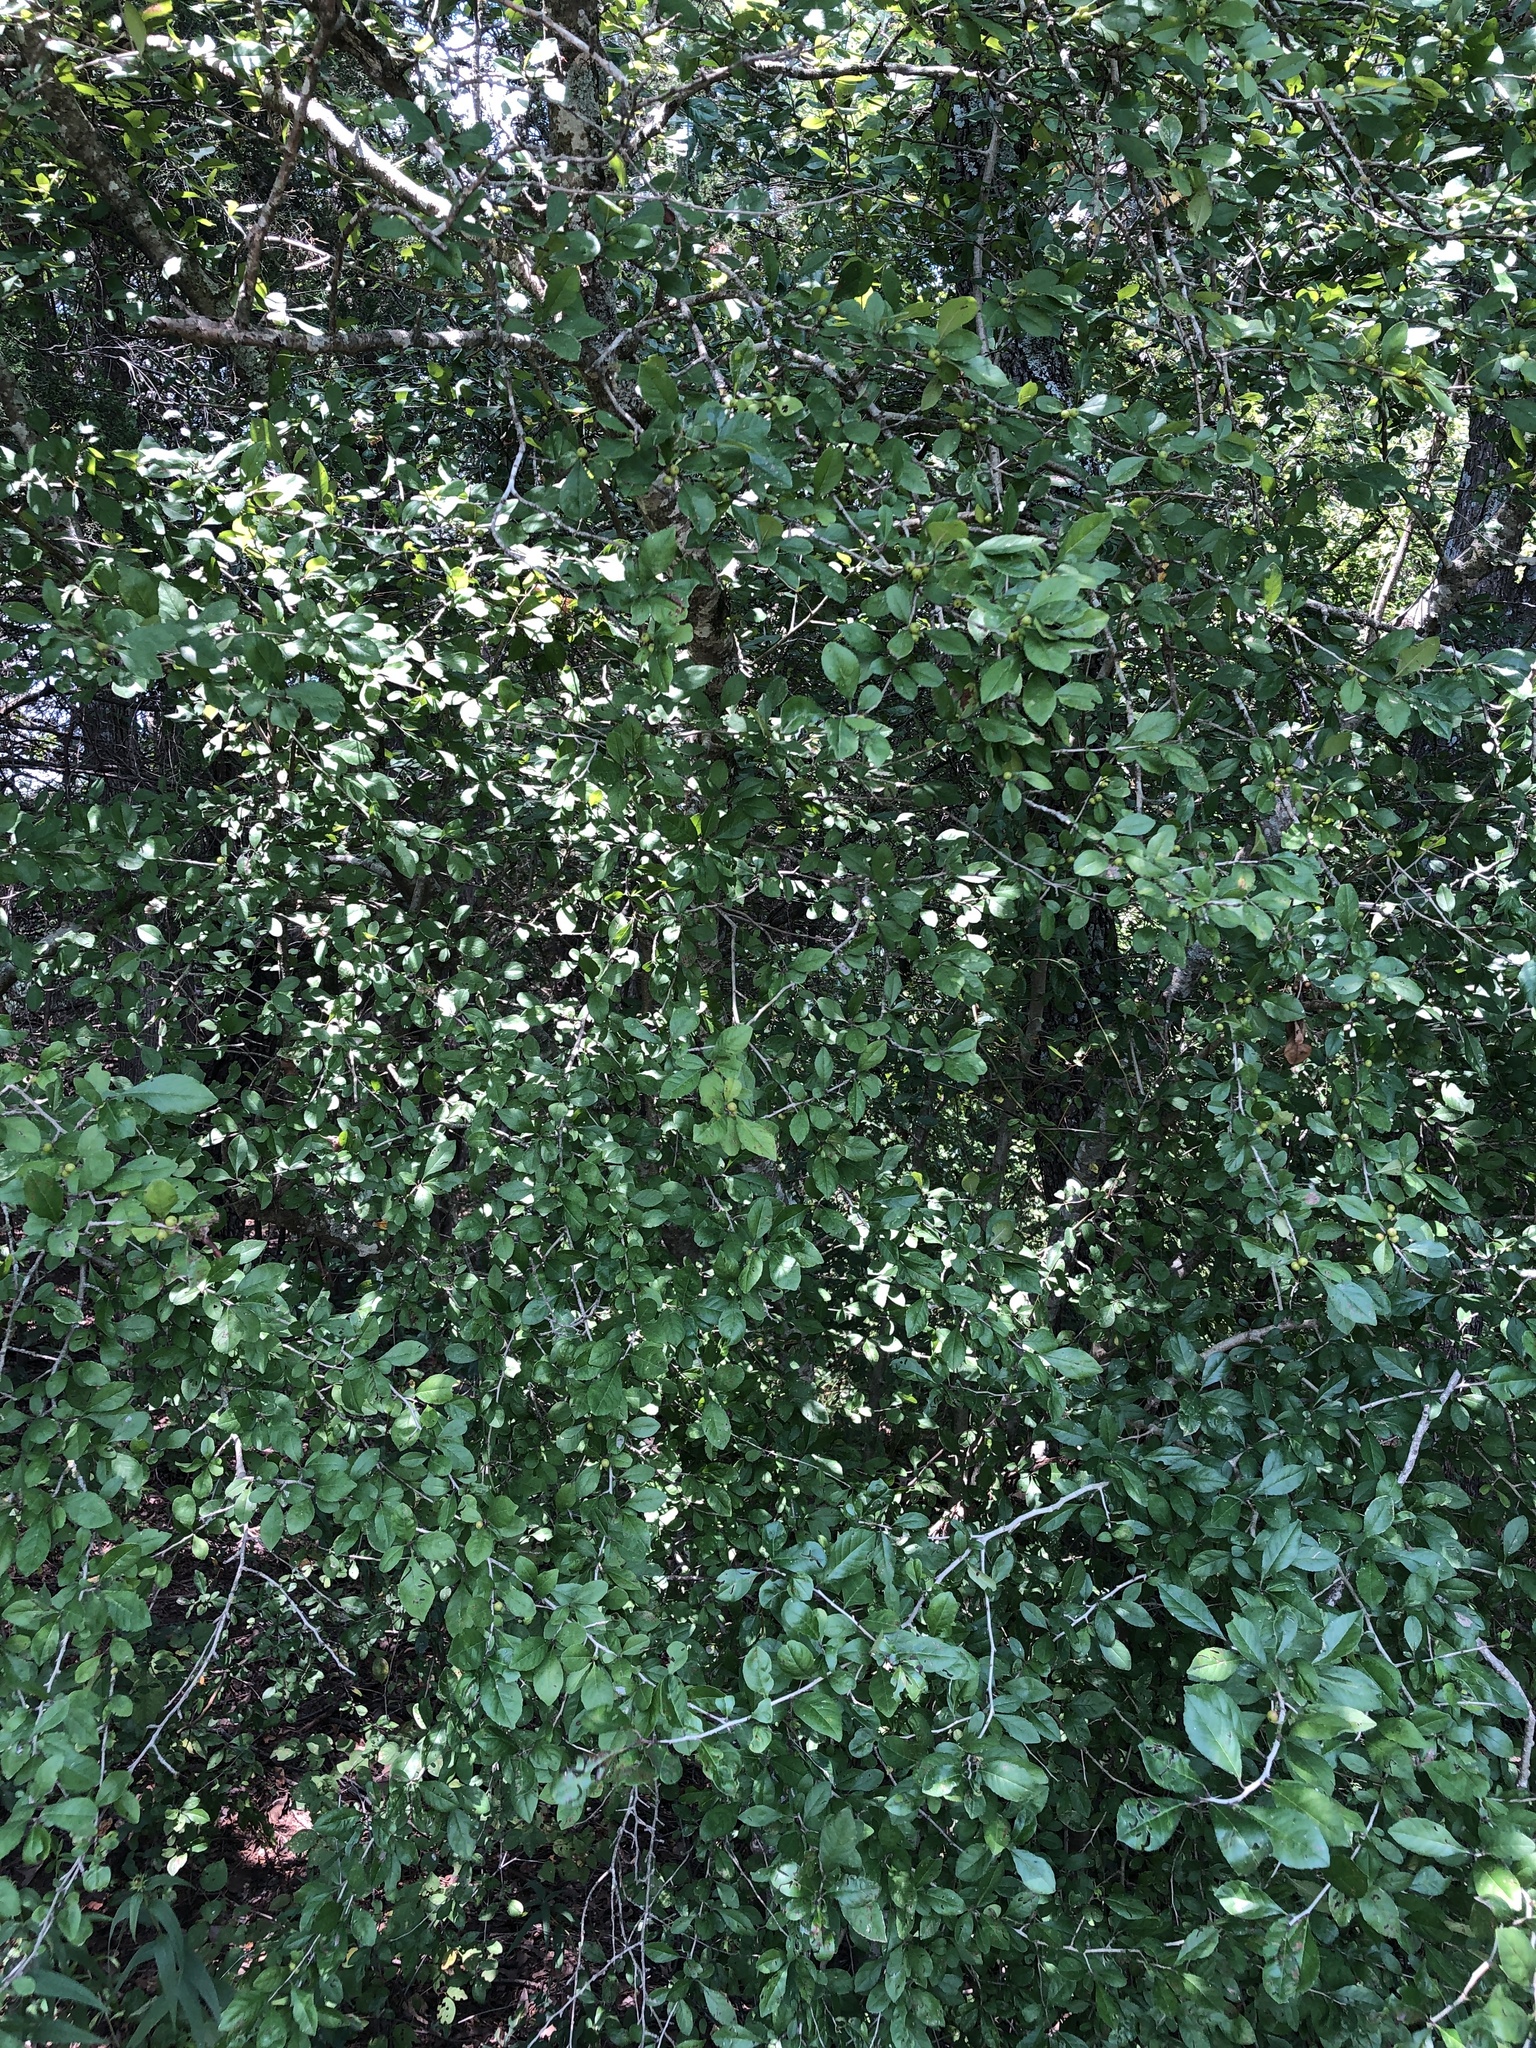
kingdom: Plantae
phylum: Tracheophyta
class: Magnoliopsida
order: Aquifoliales
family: Aquifoliaceae
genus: Ilex
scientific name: Ilex decidua
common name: Possum-haw
